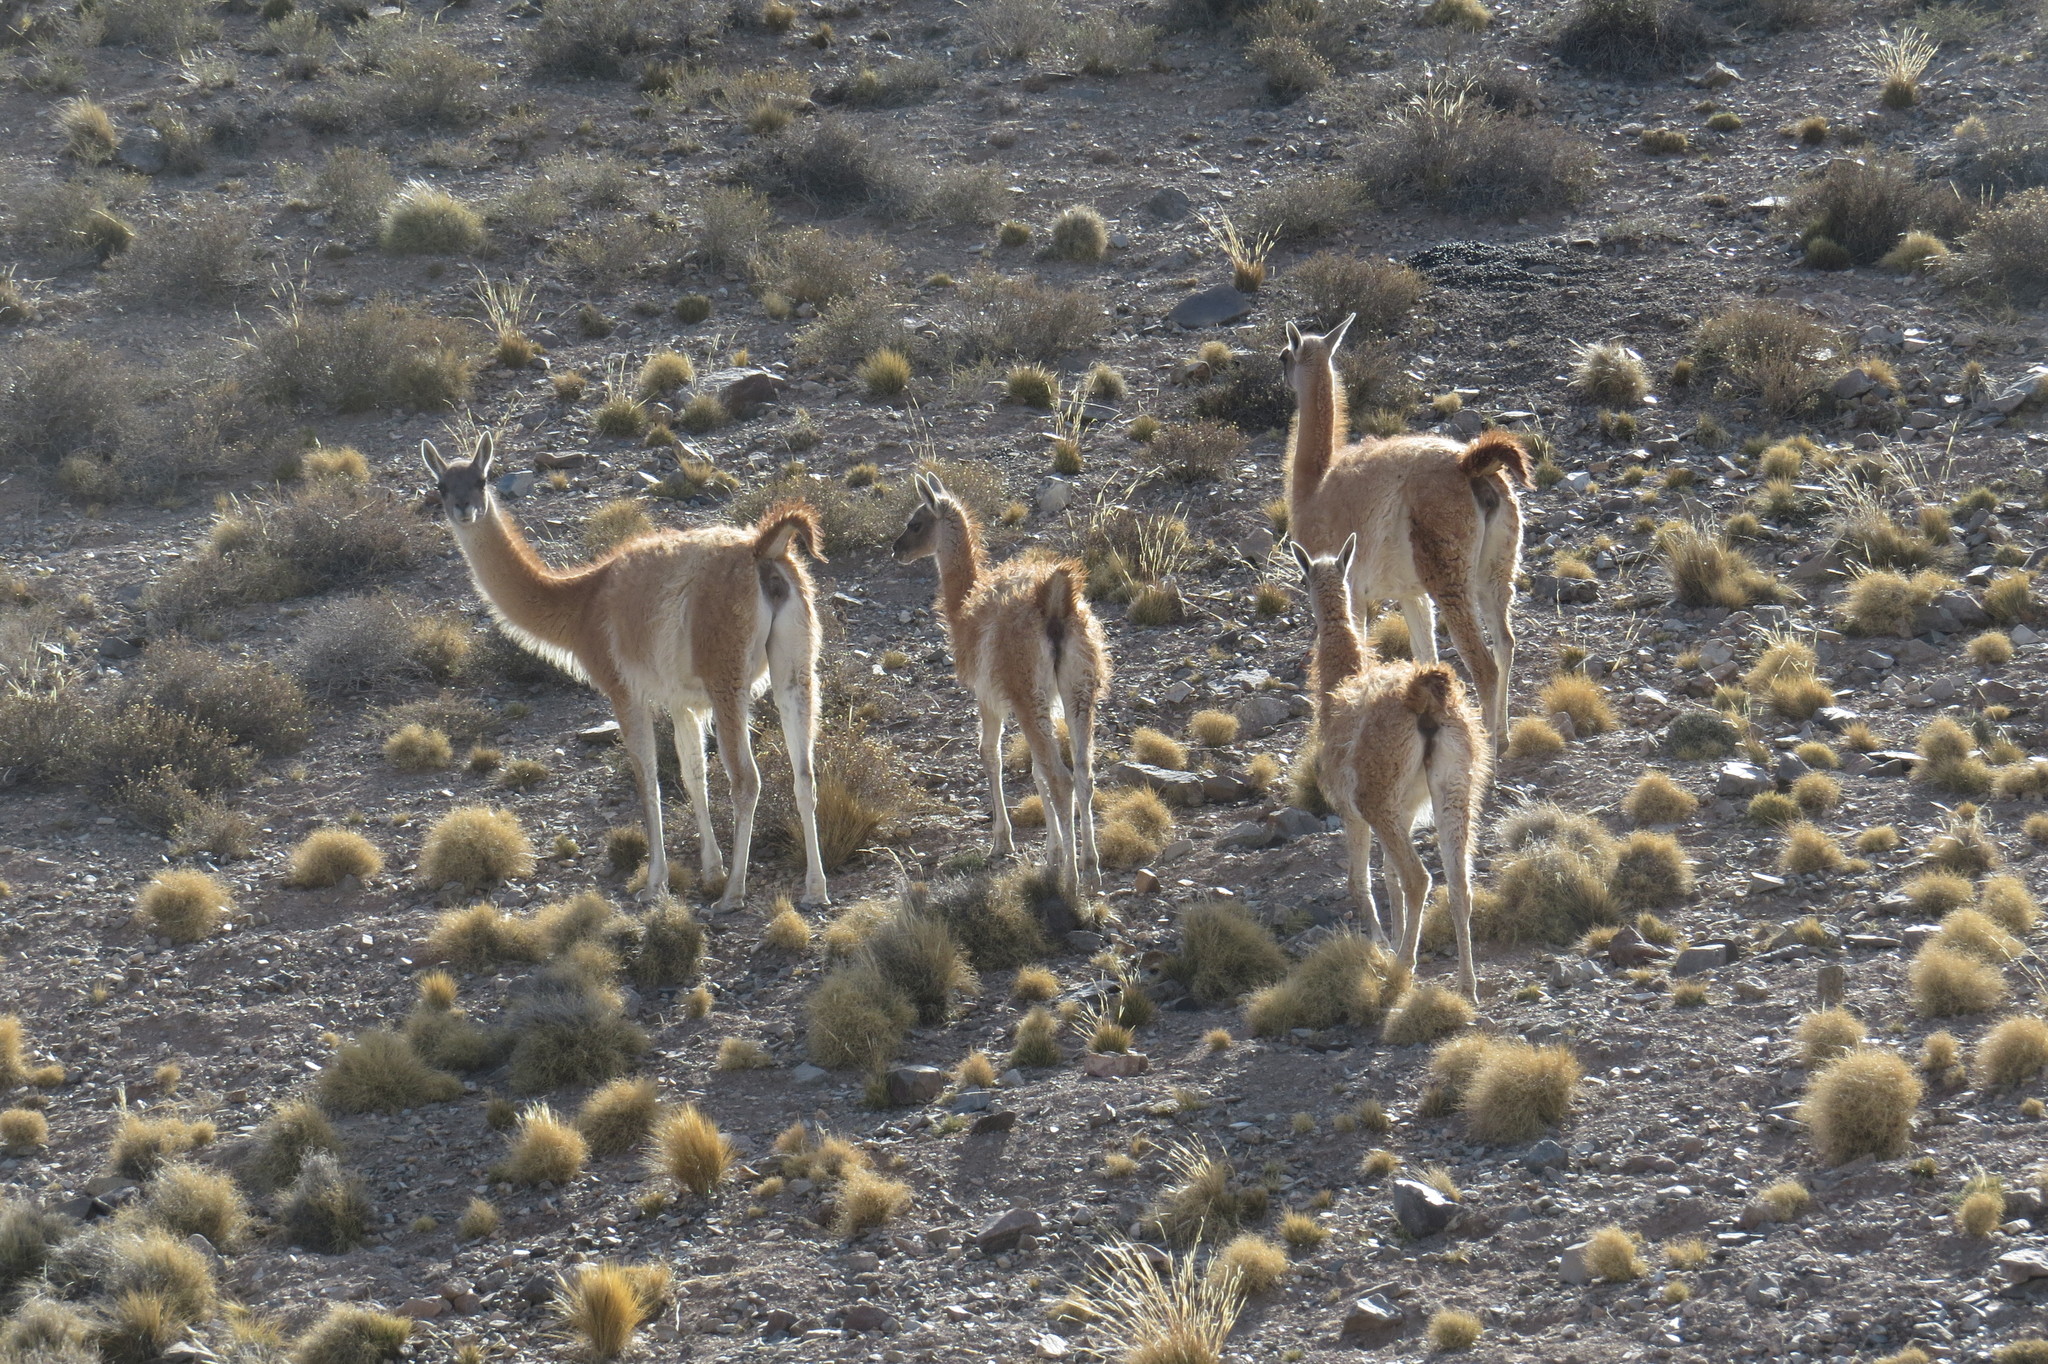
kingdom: Animalia
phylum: Chordata
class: Mammalia
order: Artiodactyla
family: Camelidae
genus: Lama
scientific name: Lama glama
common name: Llama
